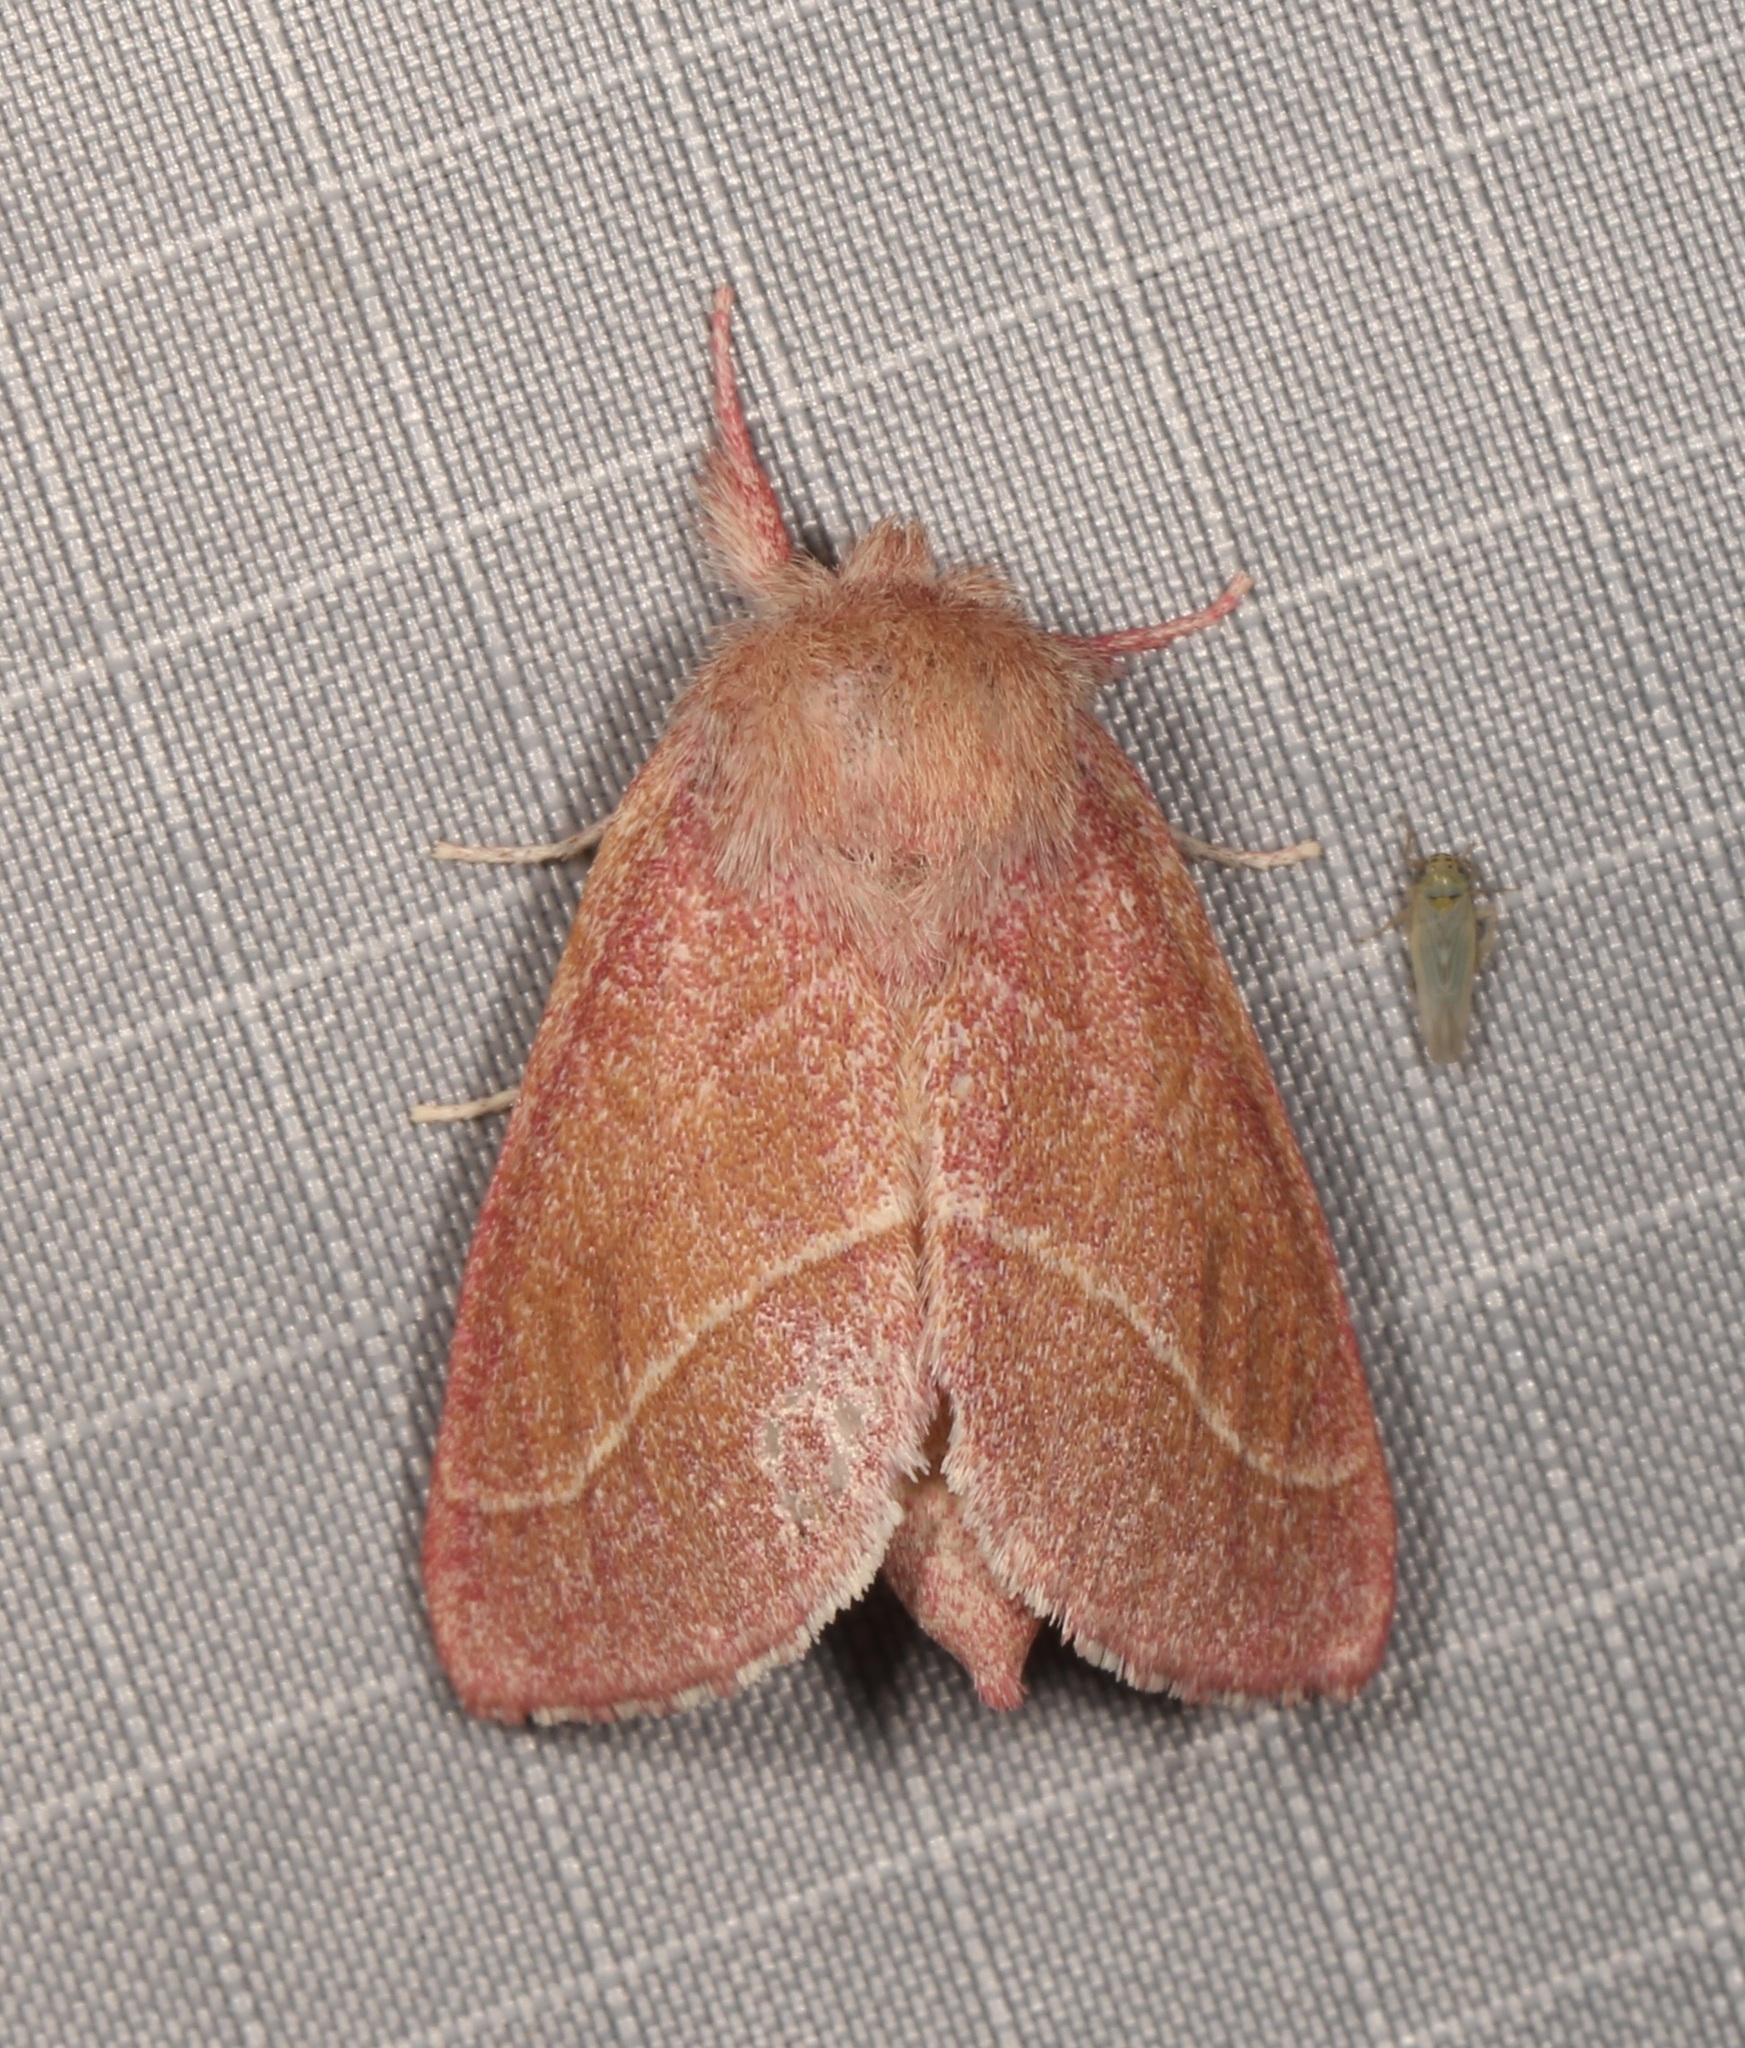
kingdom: Animalia
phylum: Arthropoda
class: Insecta
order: Lepidoptera
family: Notodontidae
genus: Hyparpax
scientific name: Hyparpax aurostriata
